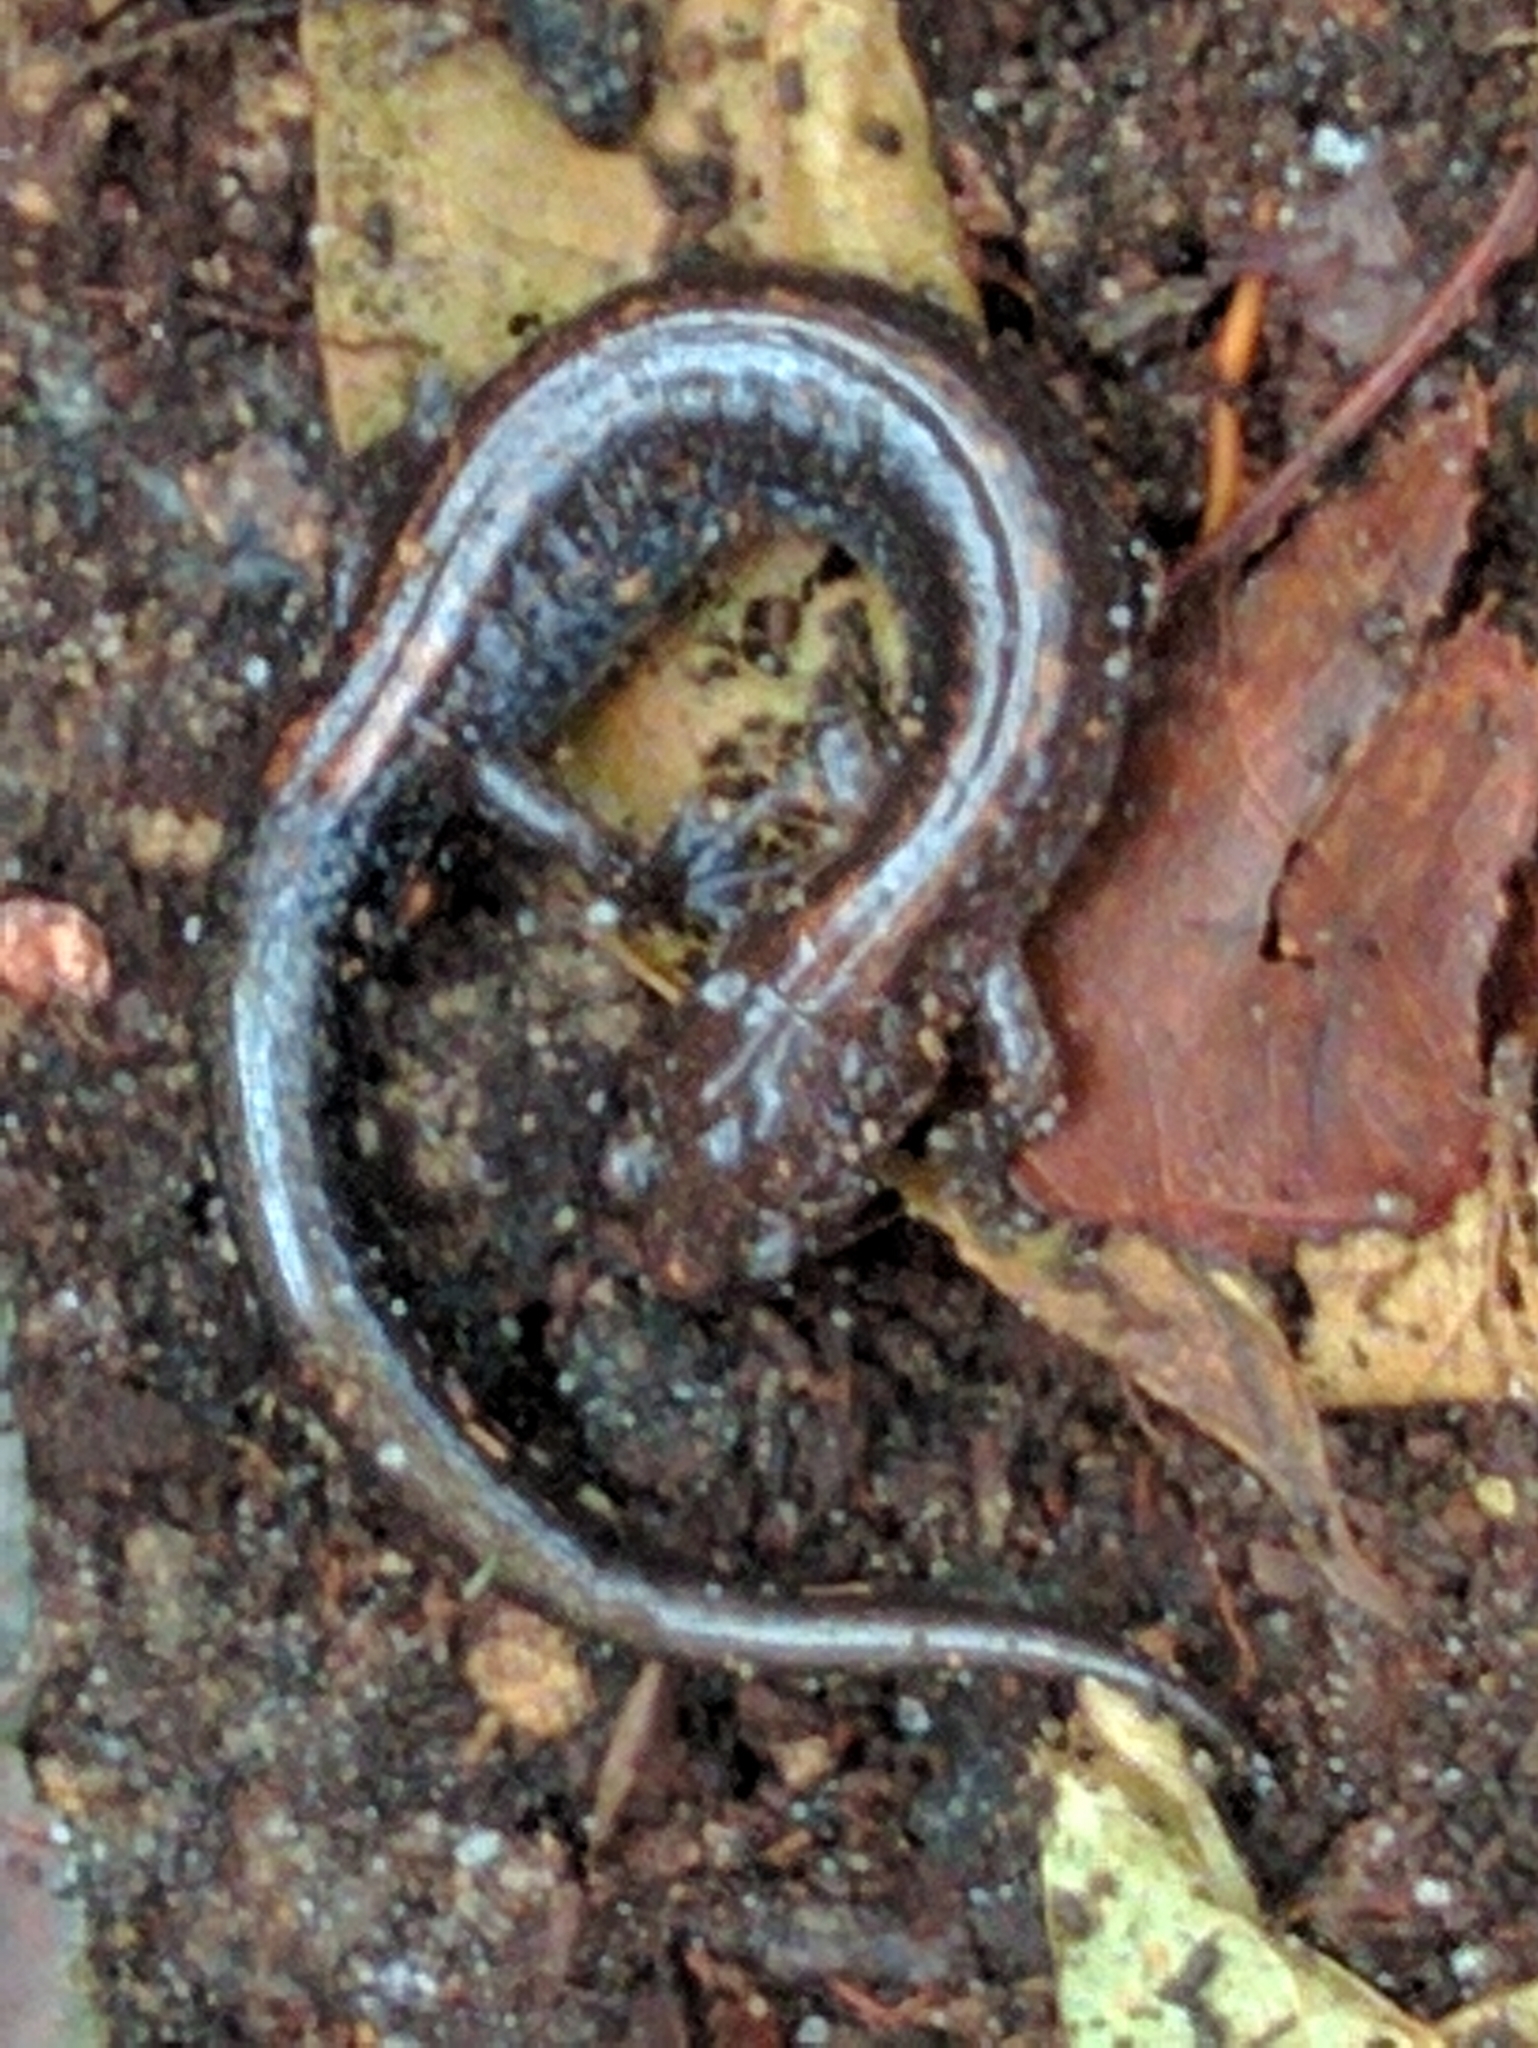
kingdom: Animalia
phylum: Chordata
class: Amphibia
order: Caudata
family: Plethodontidae
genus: Plethodon
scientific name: Plethodon cinereus
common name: Redback salamander
